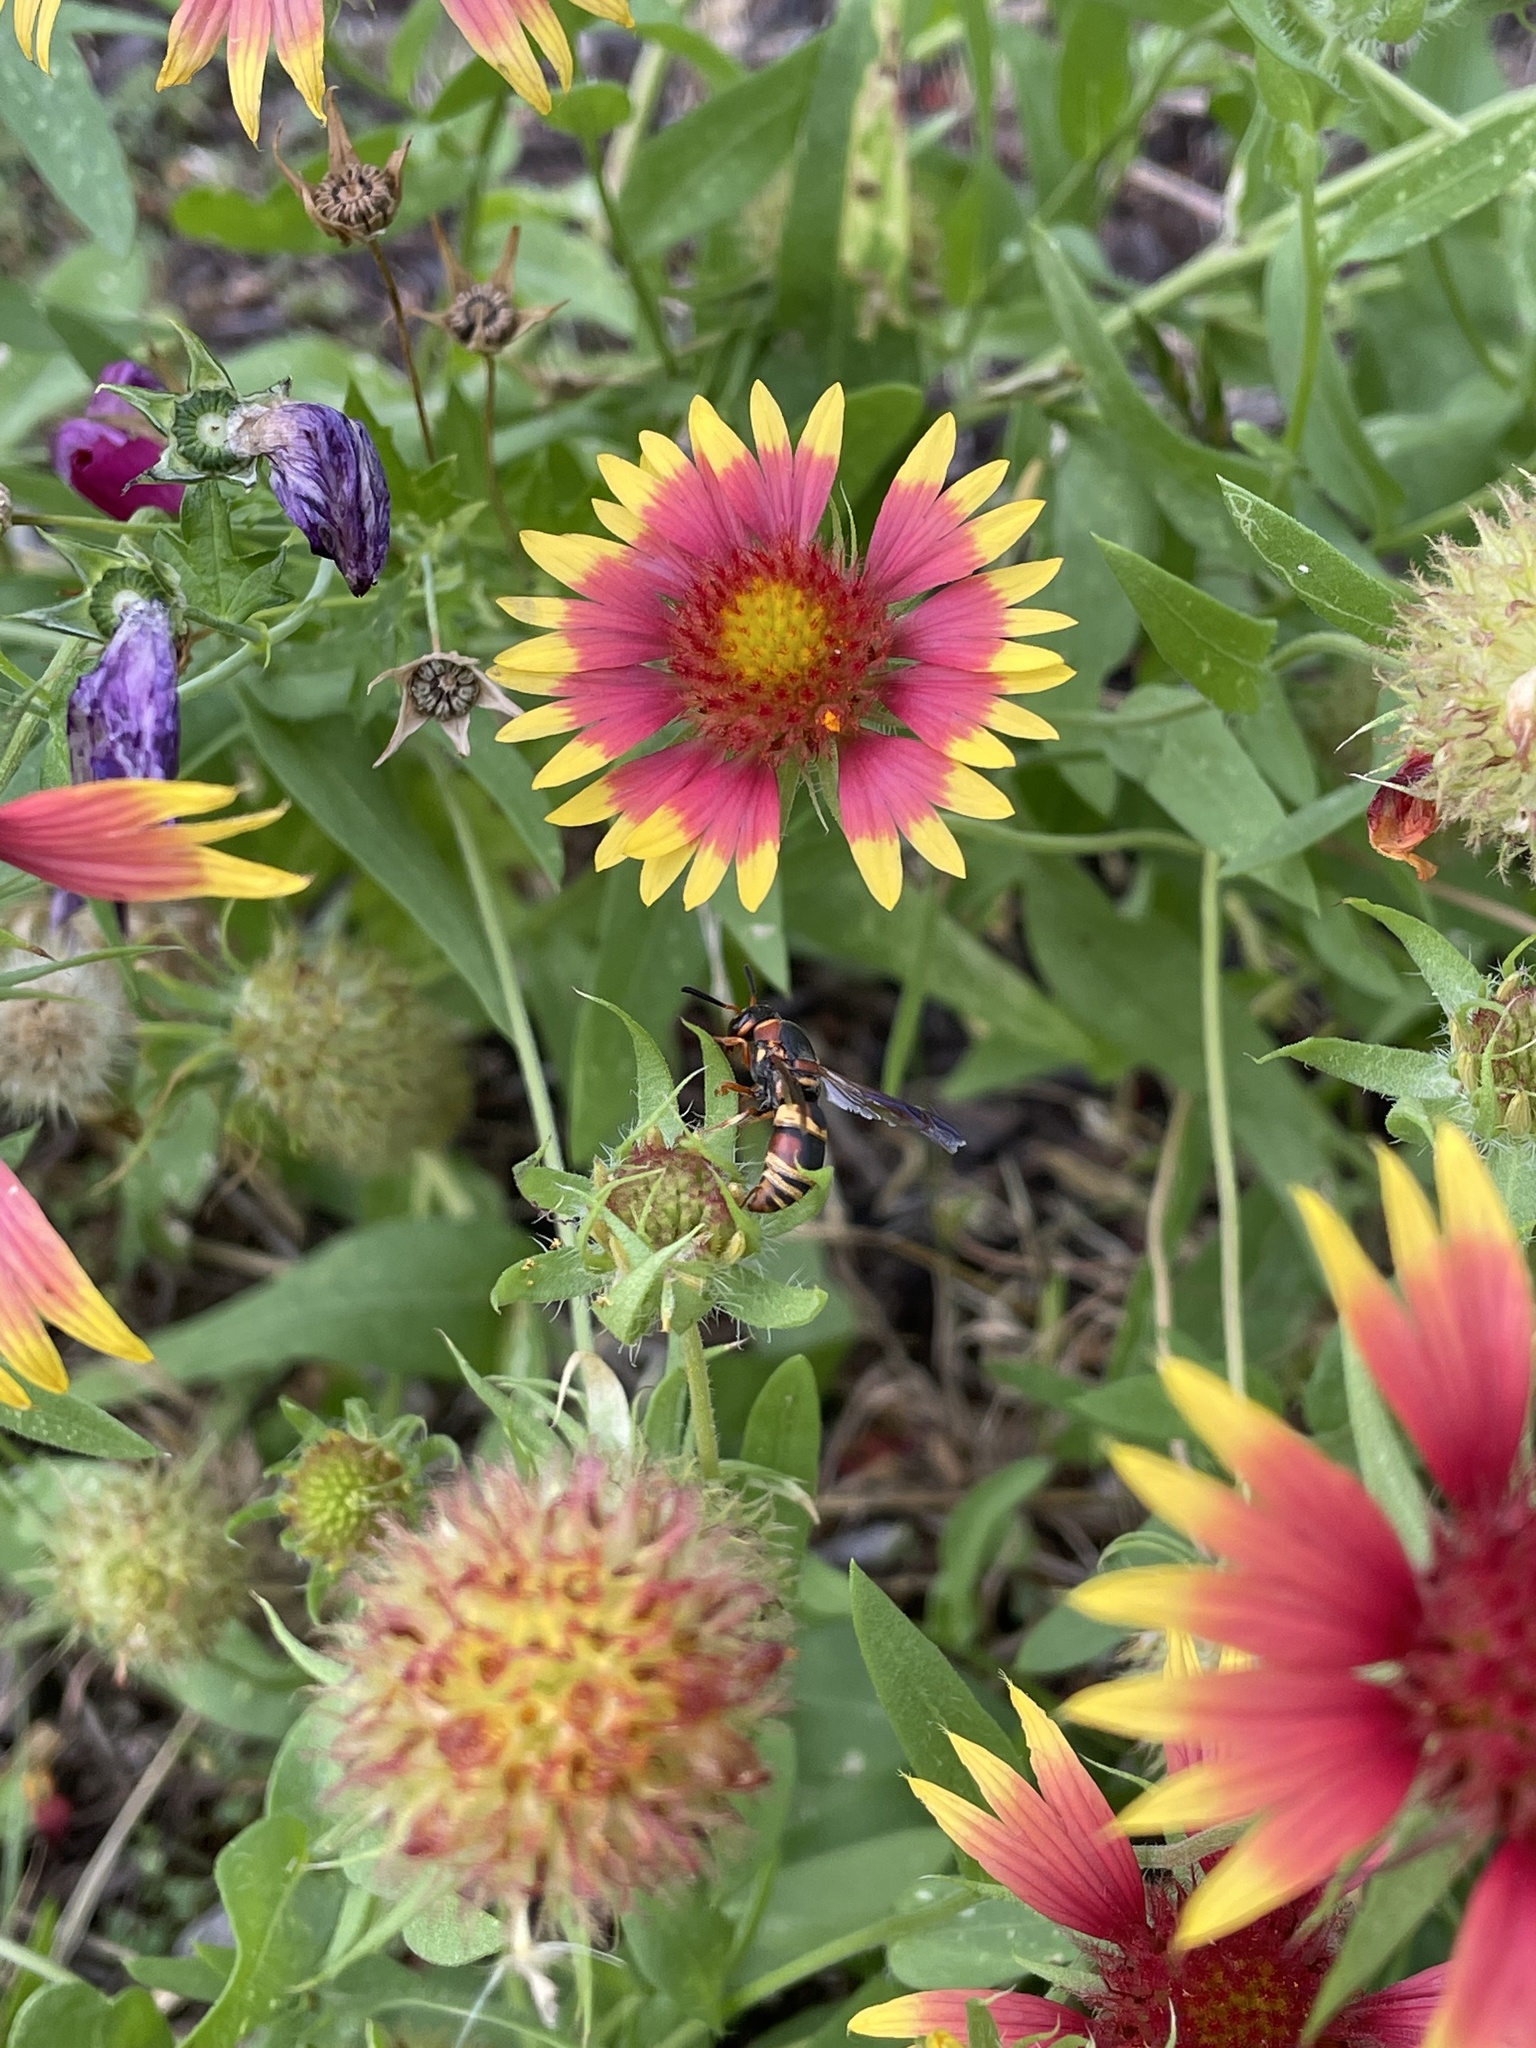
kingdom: Animalia
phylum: Arthropoda
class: Insecta
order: Hymenoptera
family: Eumenidae
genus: Euodynerus
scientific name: Euodynerus hidalgo
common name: Wasp
